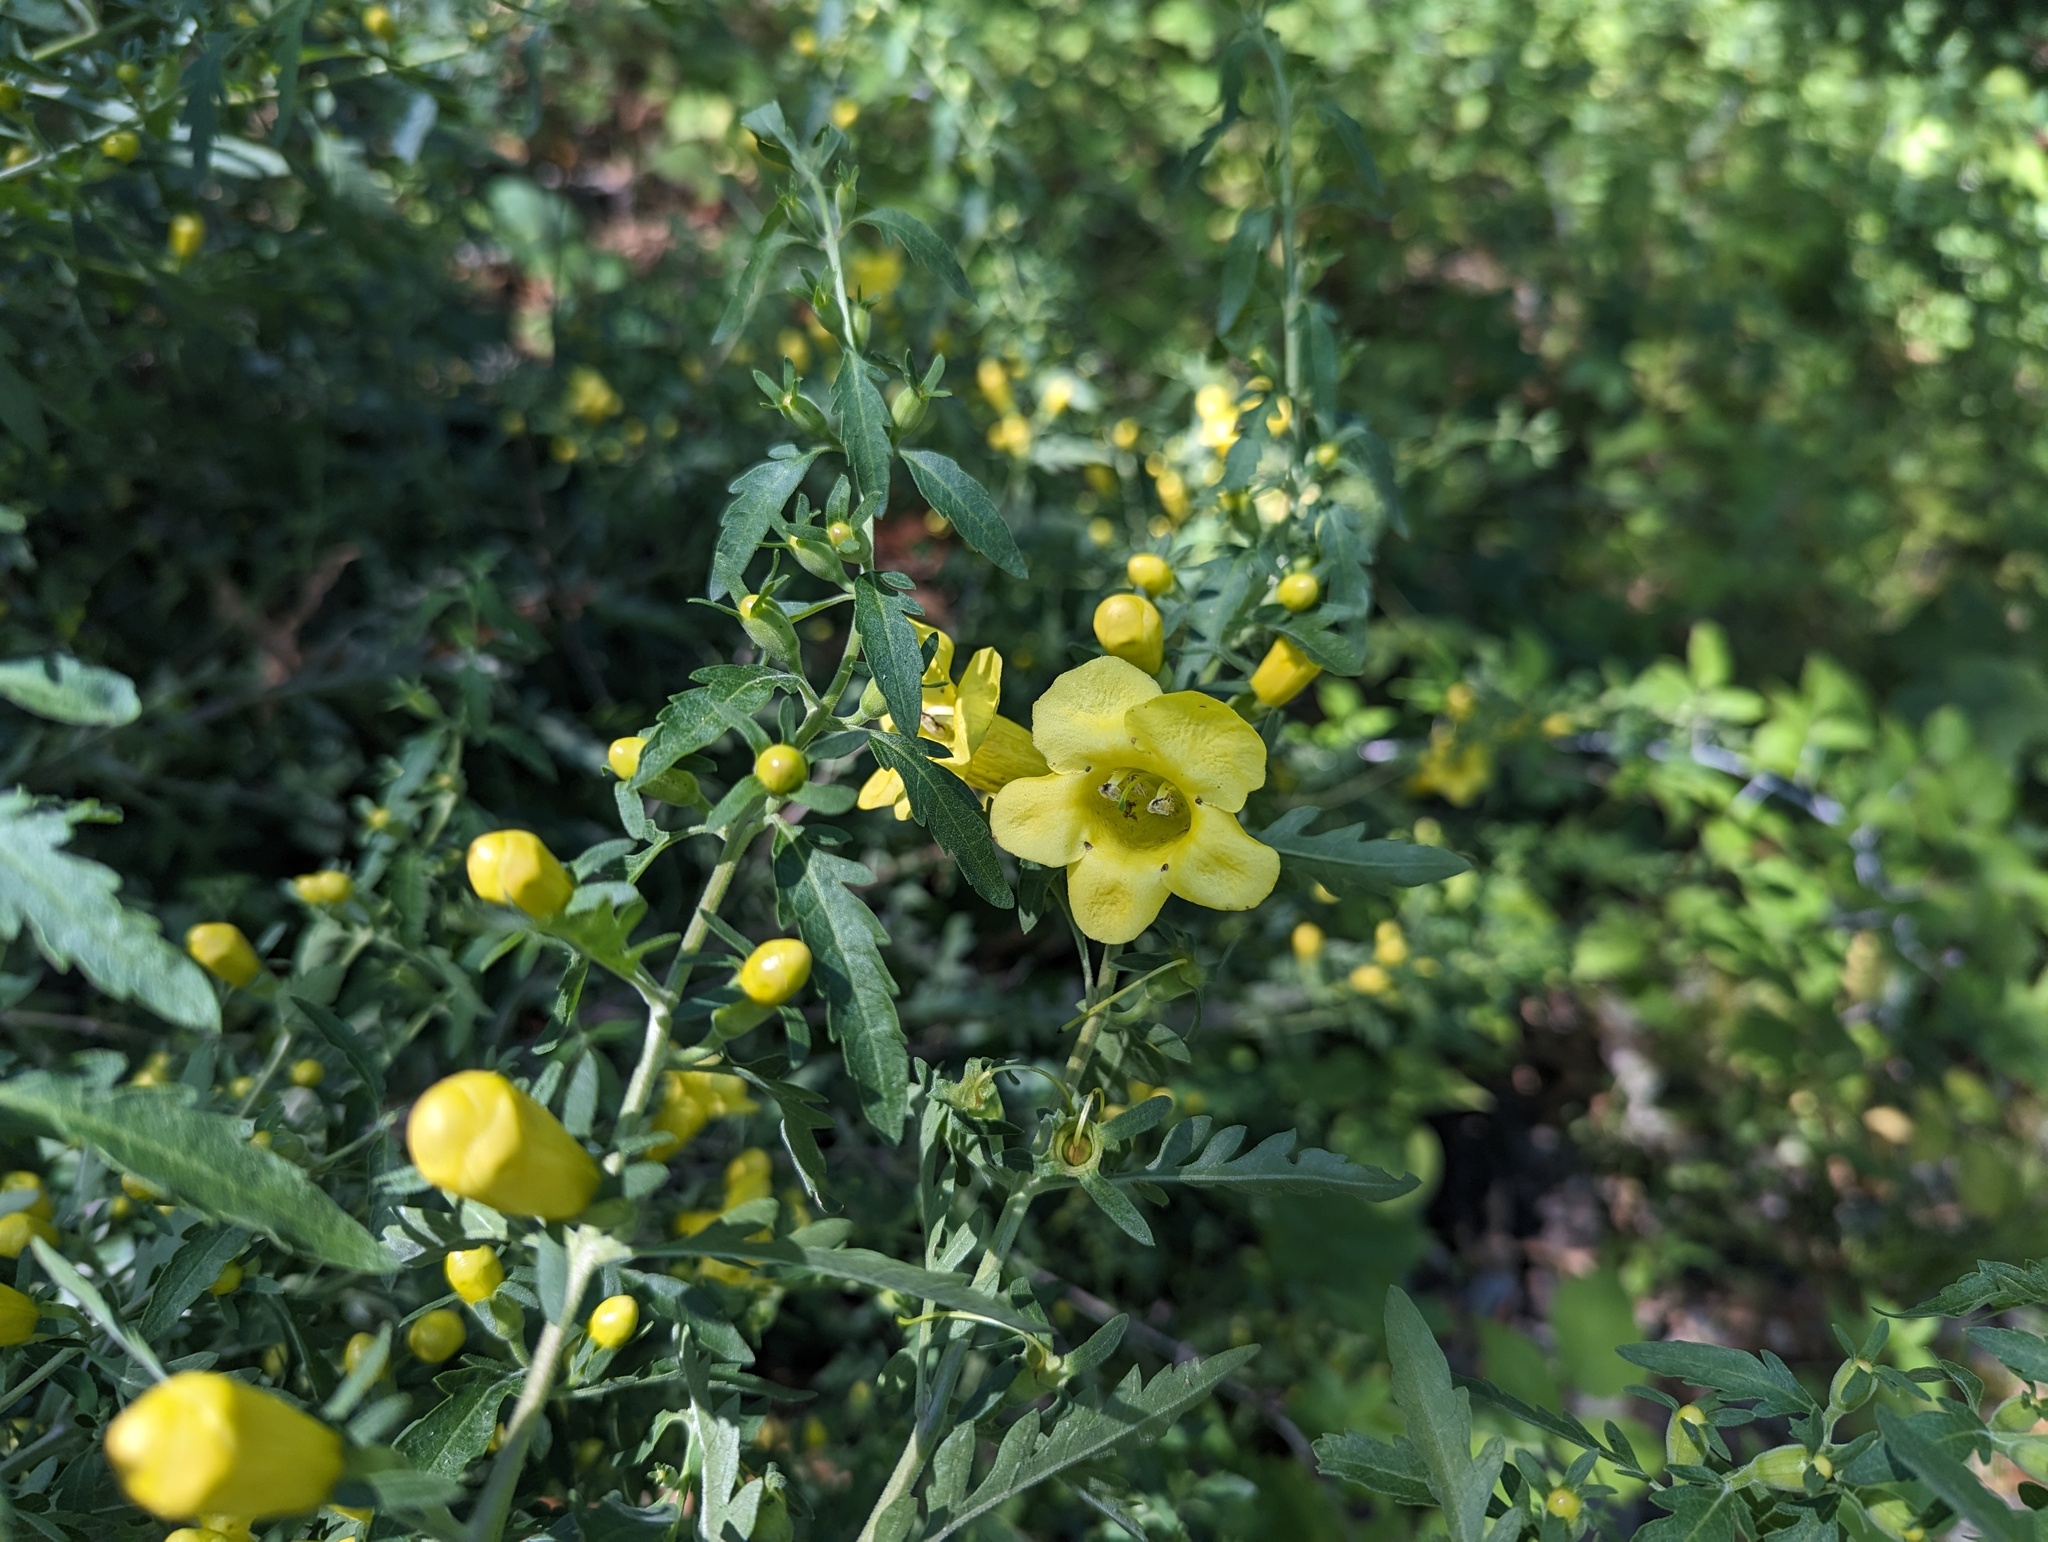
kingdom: Plantae
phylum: Tracheophyta
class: Magnoliopsida
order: Lamiales
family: Orobanchaceae
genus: Aureolaria
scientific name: Aureolaria grandiflora
